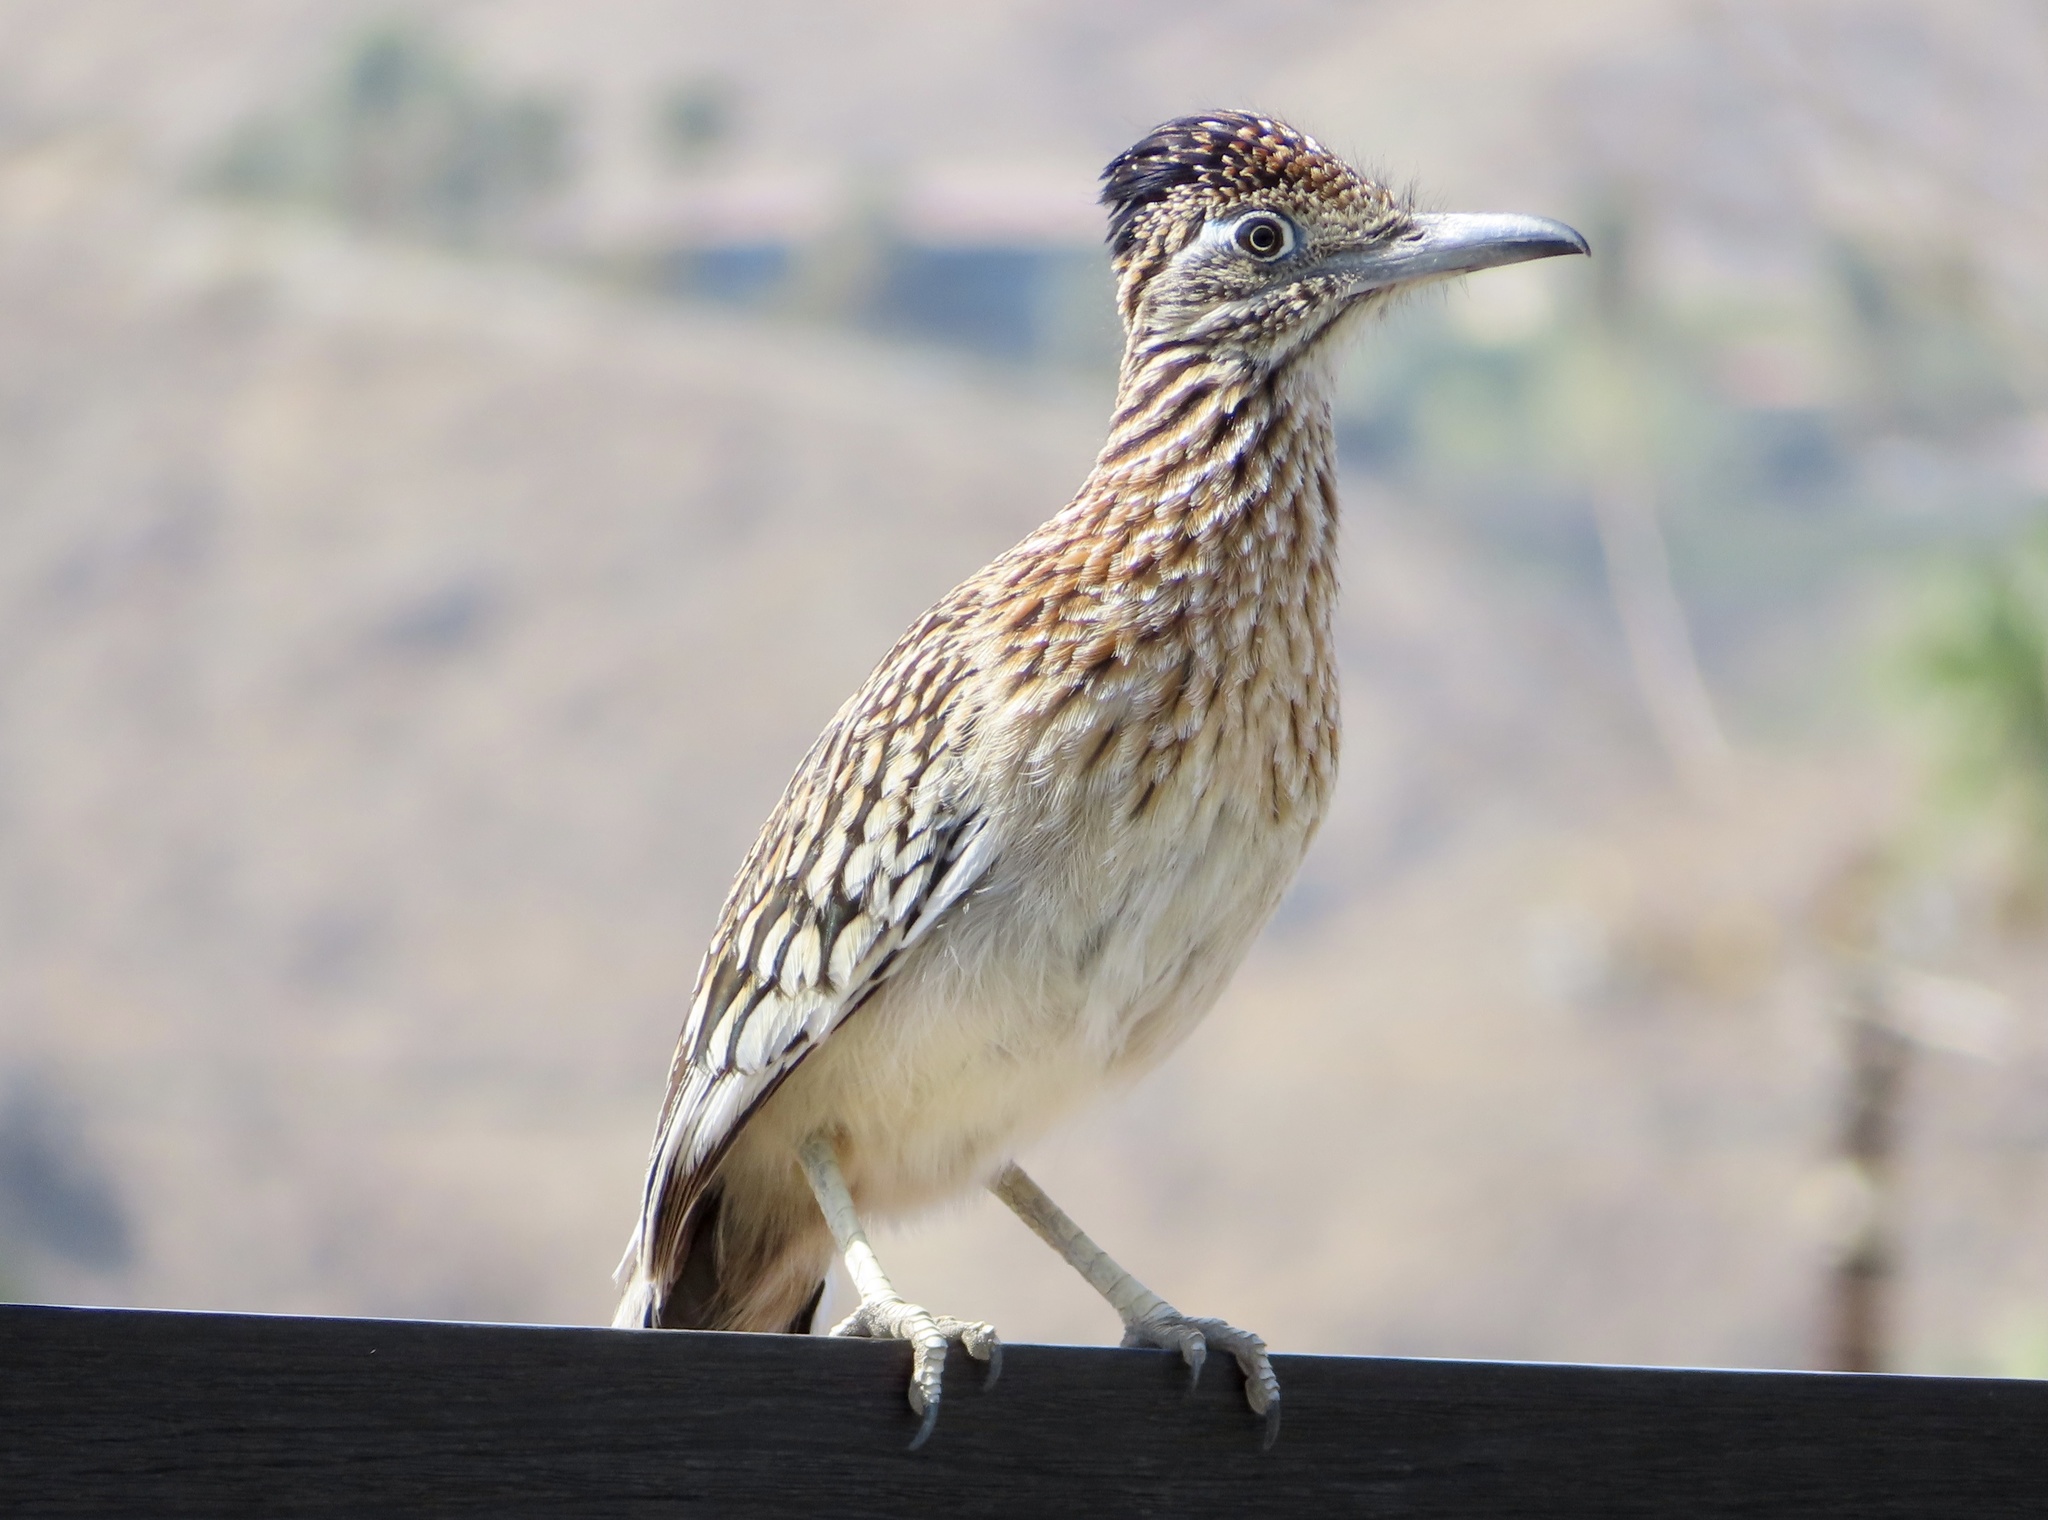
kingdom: Animalia
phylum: Chordata
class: Aves
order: Cuculiformes
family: Cuculidae
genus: Geococcyx
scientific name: Geococcyx californianus
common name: Greater roadrunner
